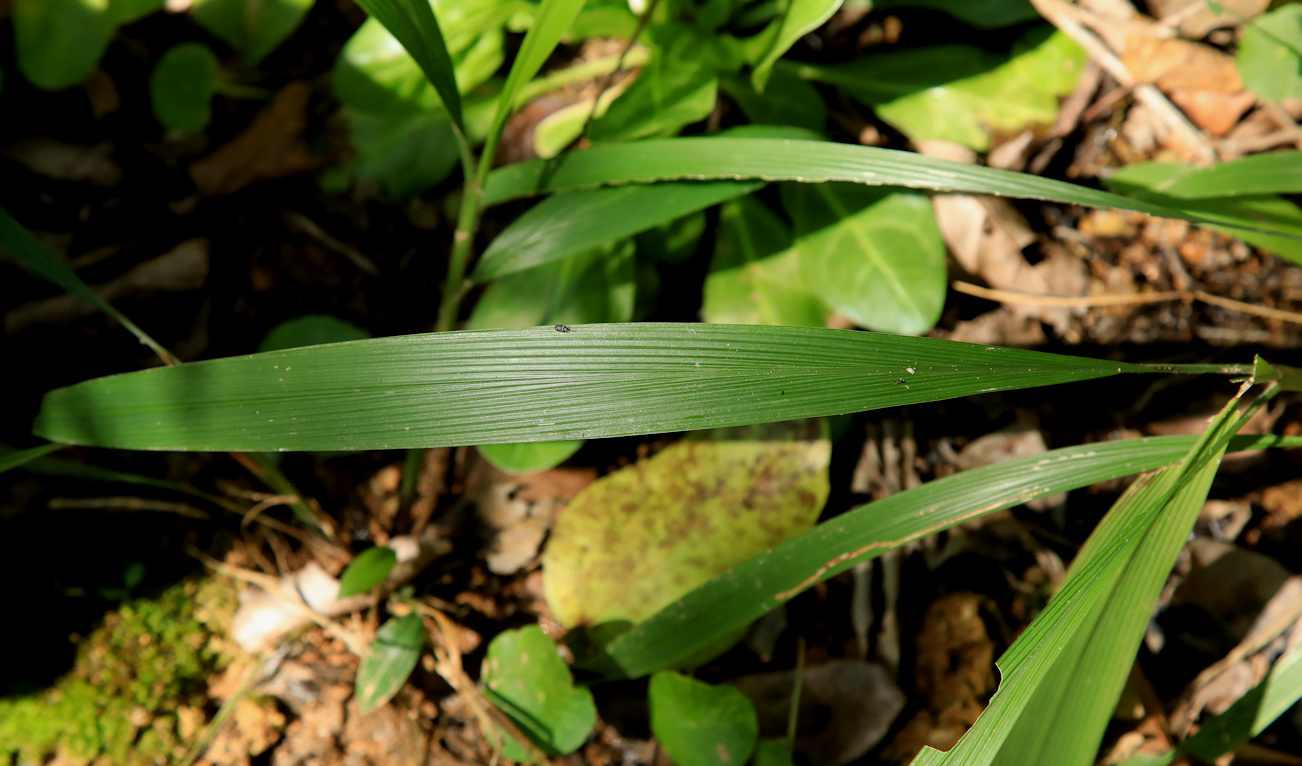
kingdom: Plantae
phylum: Tracheophyta
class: Liliopsida
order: Poales
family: Poaceae
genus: Setaria
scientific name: Setaria megaphylla
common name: Bigleaf bristlegrass
